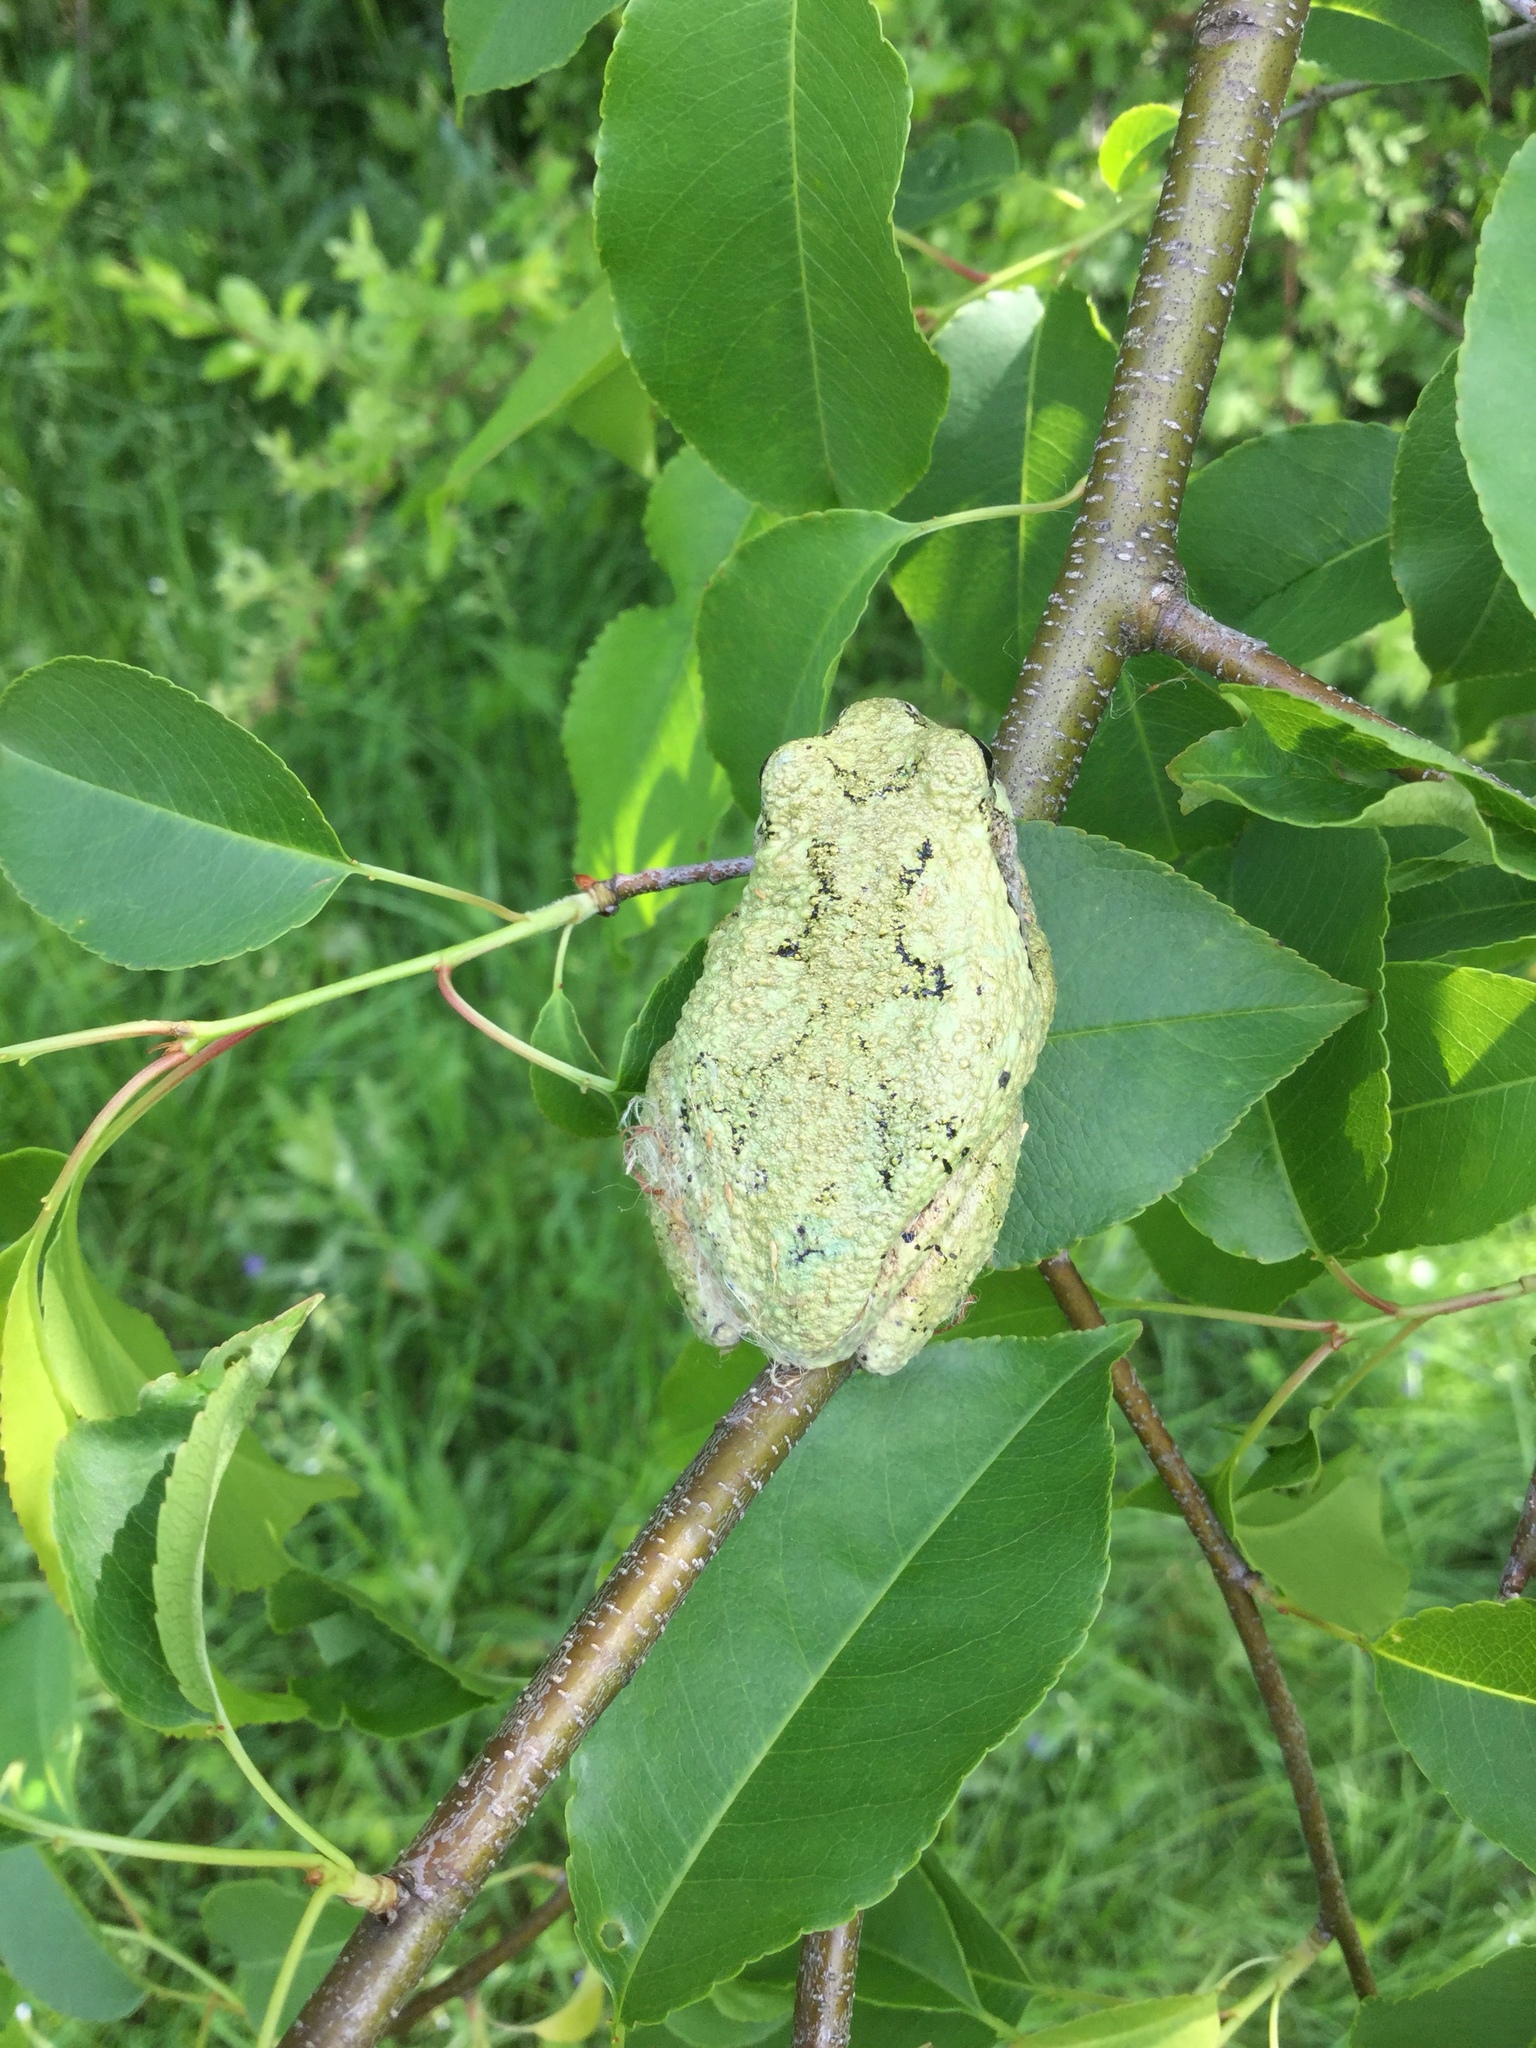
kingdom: Animalia
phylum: Chordata
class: Amphibia
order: Anura
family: Hylidae
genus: Dryophytes
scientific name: Dryophytes versicolor
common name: Gray treefrog
